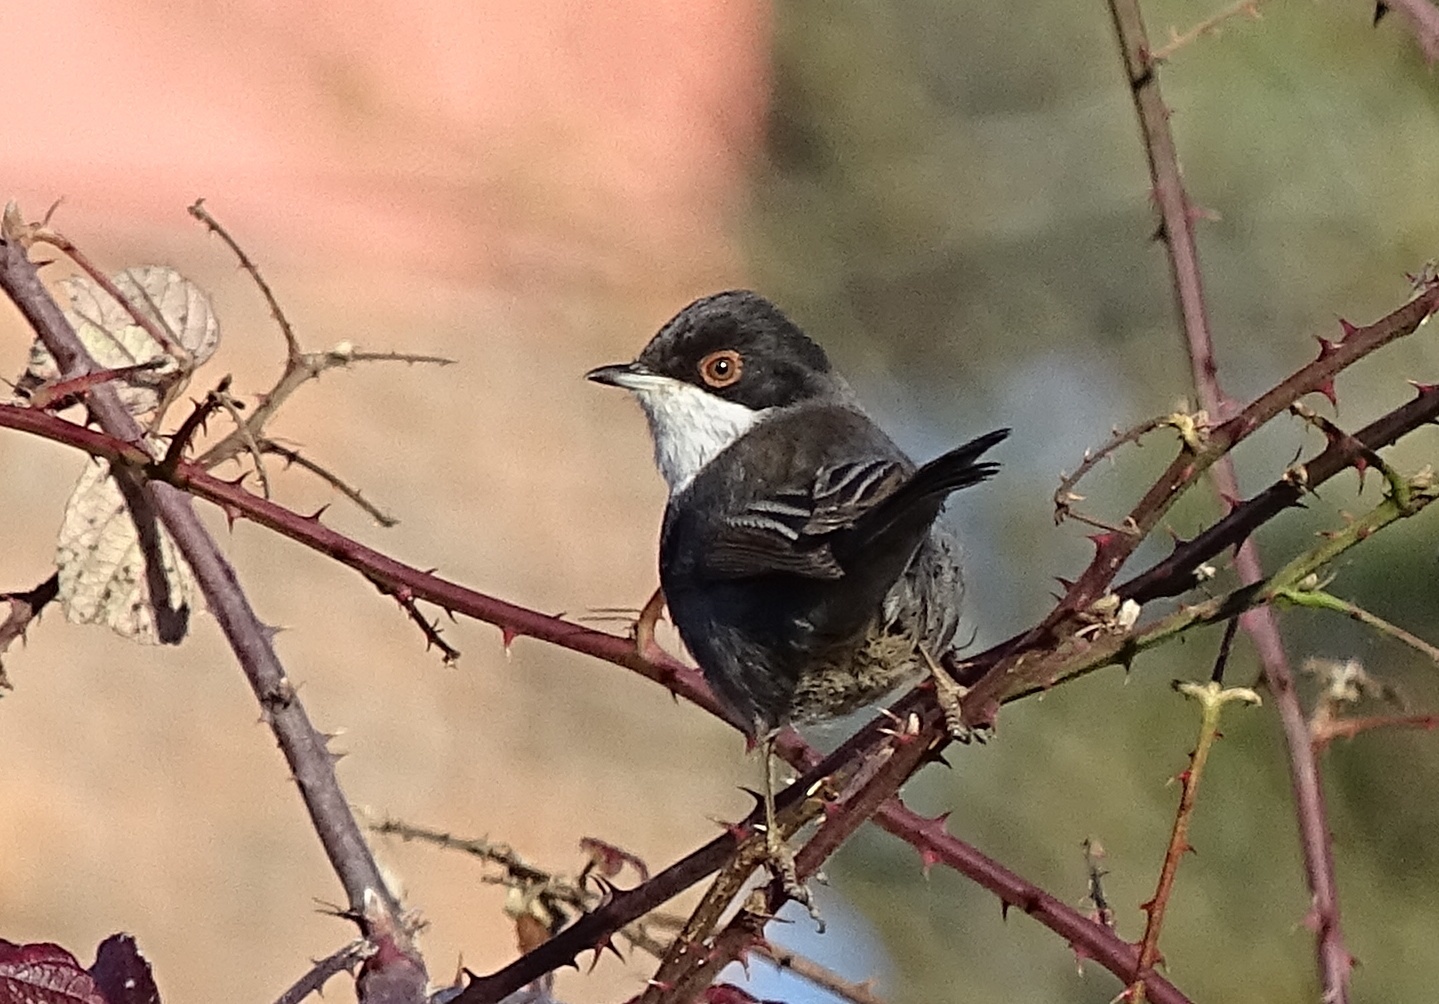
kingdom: Animalia
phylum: Chordata
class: Aves
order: Passeriformes
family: Sylviidae
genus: Curruca
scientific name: Curruca melanocephala
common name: Sardinian warbler
